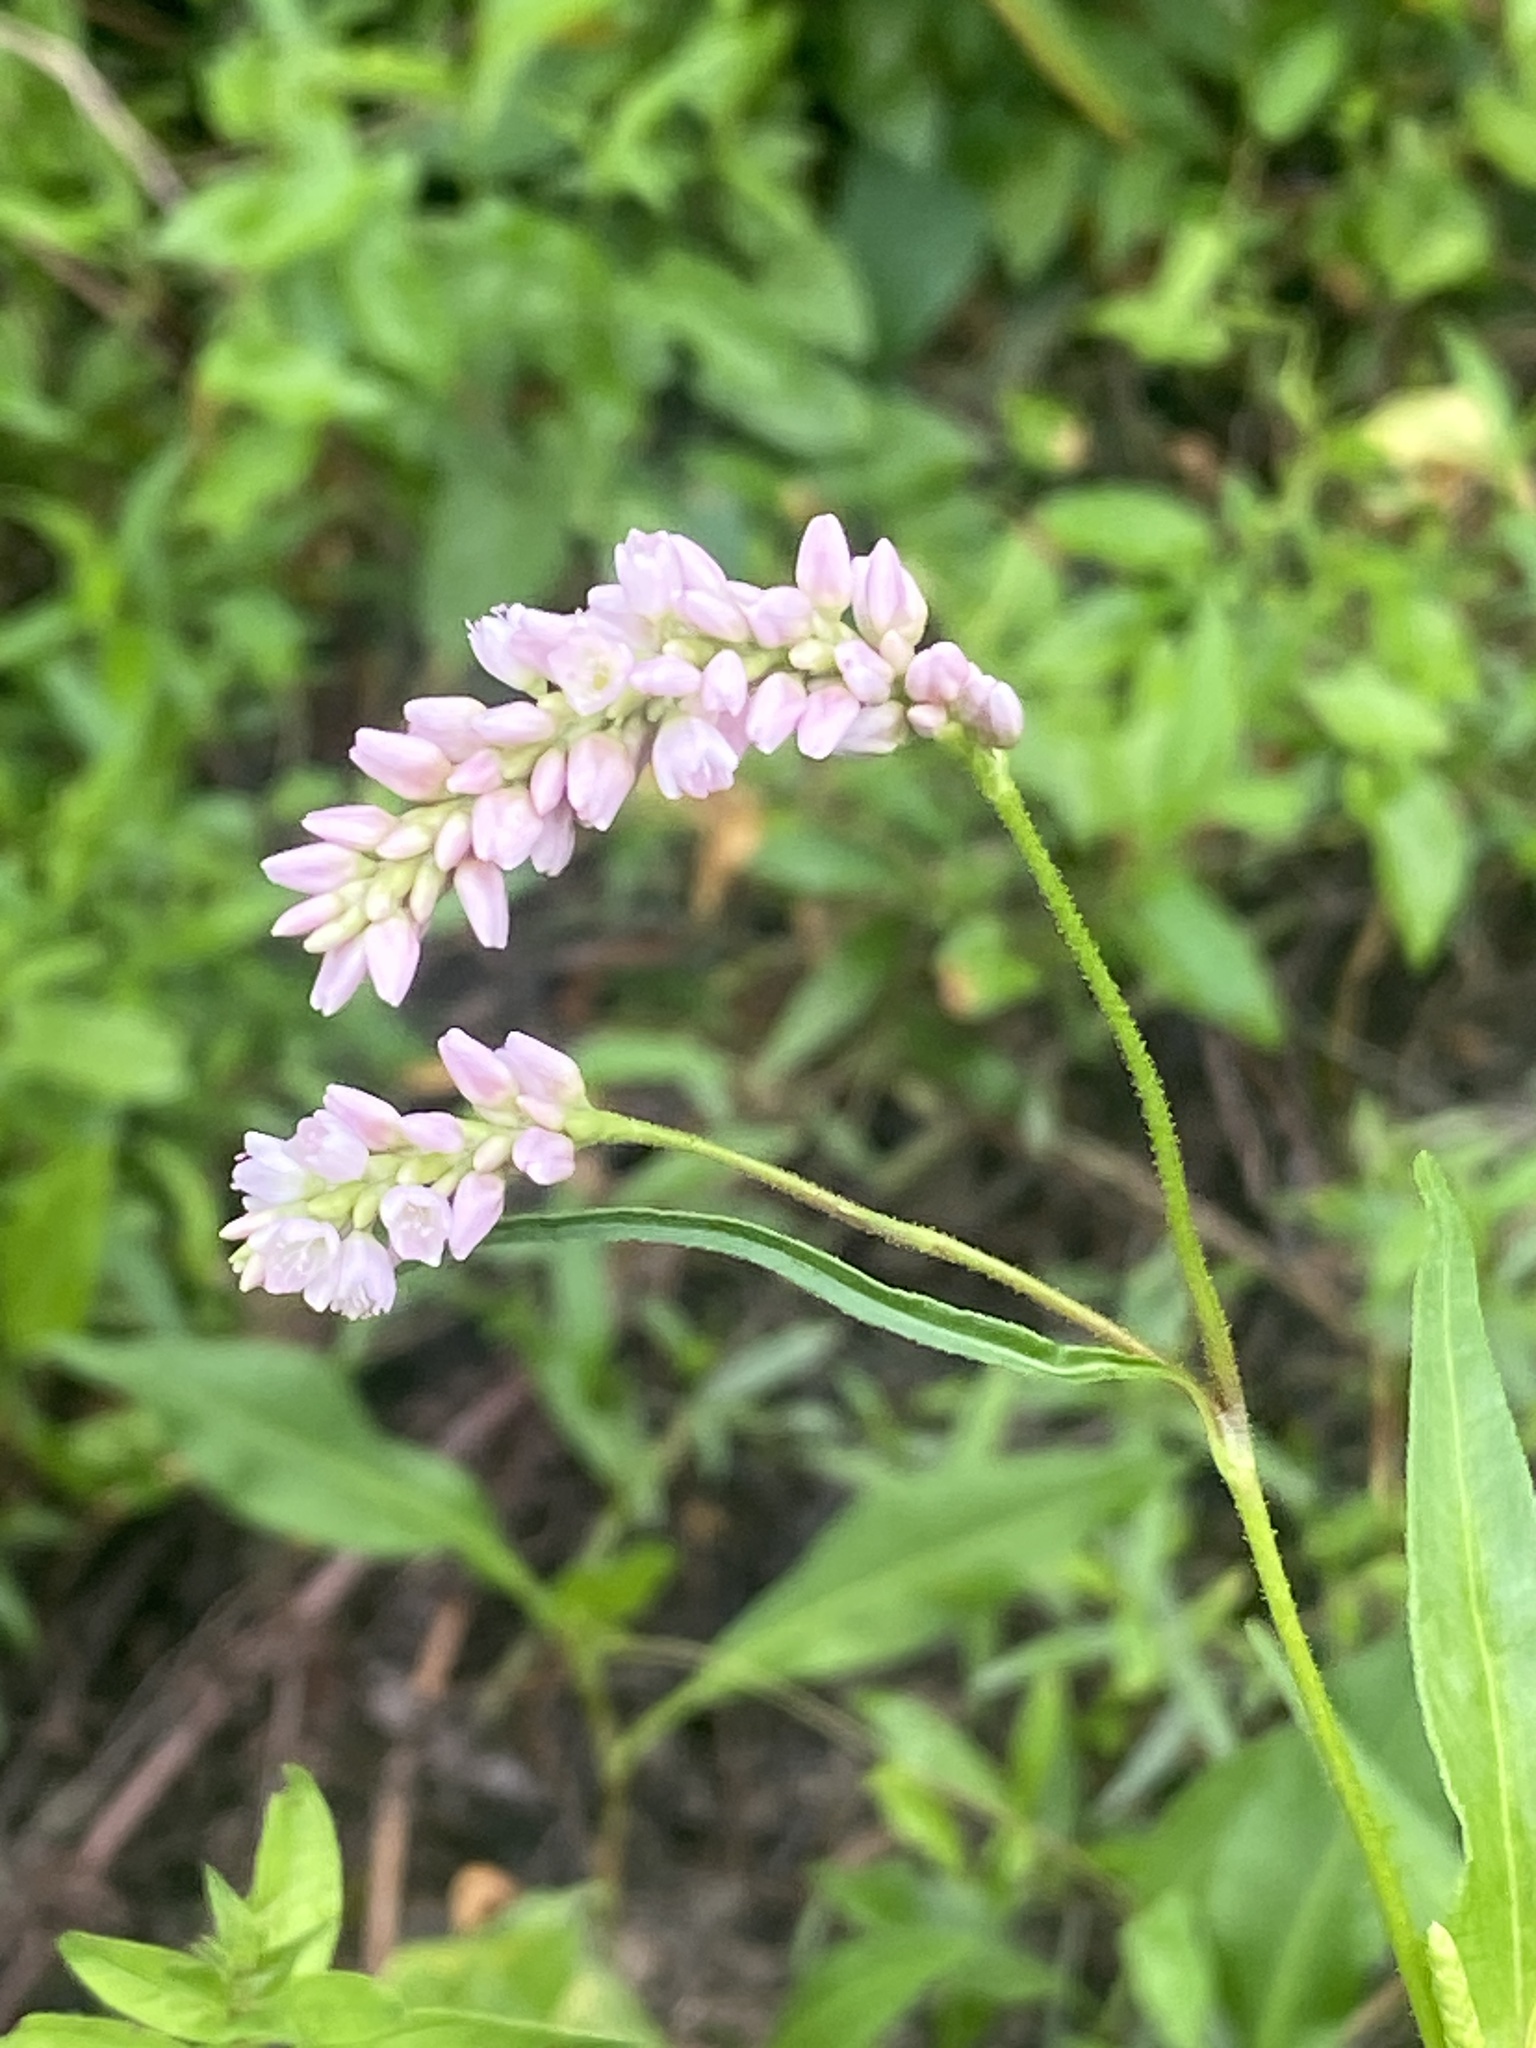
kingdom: Plantae
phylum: Tracheophyta
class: Magnoliopsida
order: Caryophyllales
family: Polygonaceae
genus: Persicaria
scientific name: Persicaria pensylvanica
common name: Pinkweed
